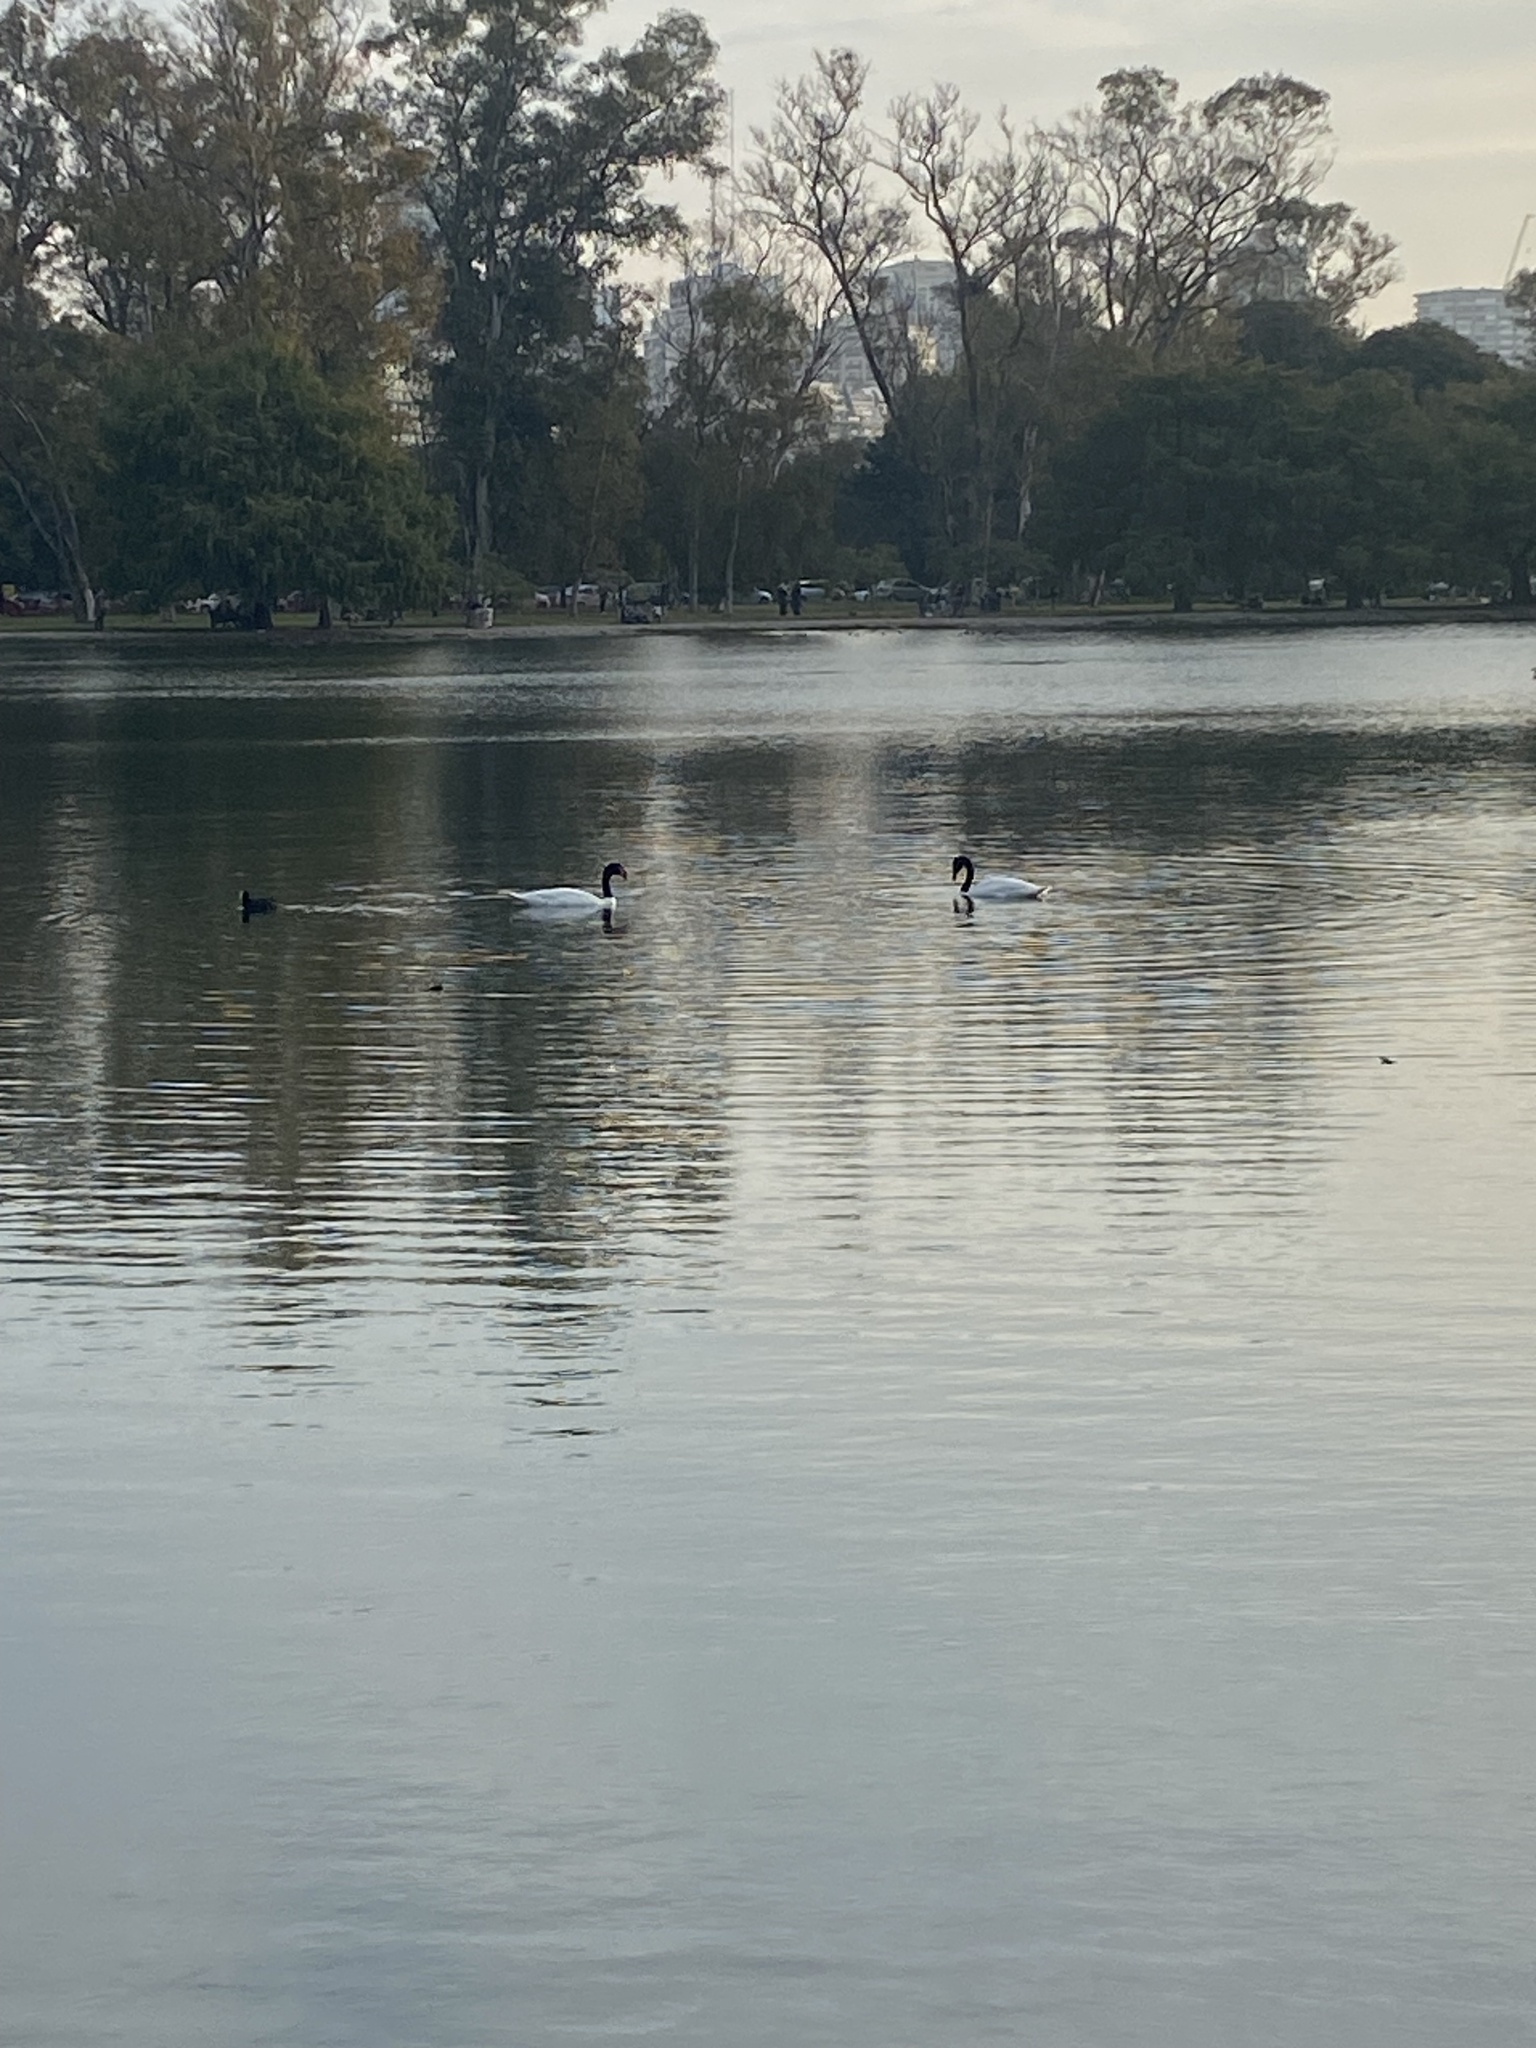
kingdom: Animalia
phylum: Chordata
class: Aves
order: Anseriformes
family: Anatidae
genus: Cygnus
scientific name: Cygnus melancoryphus
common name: Black-necked swan
